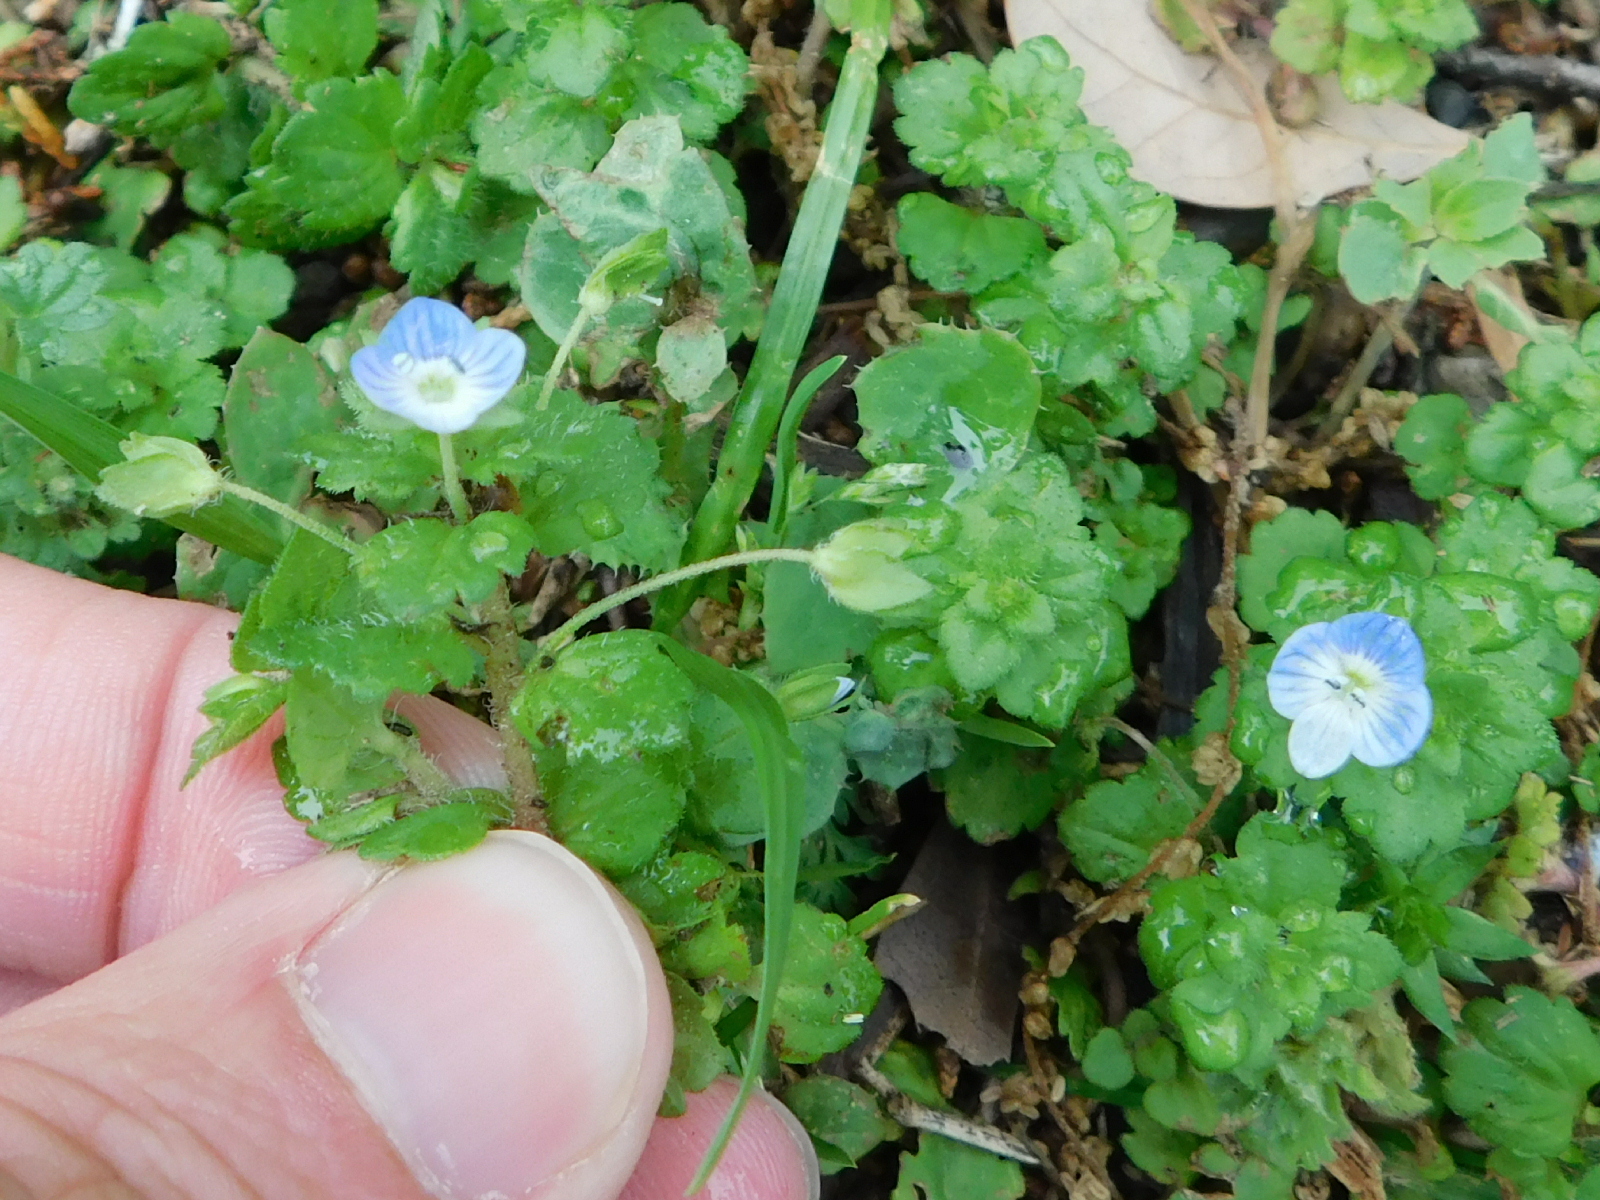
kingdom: Plantae
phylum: Tracheophyta
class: Magnoliopsida
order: Lamiales
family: Plantaginaceae
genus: Veronica
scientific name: Veronica persica
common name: Common field-speedwell
